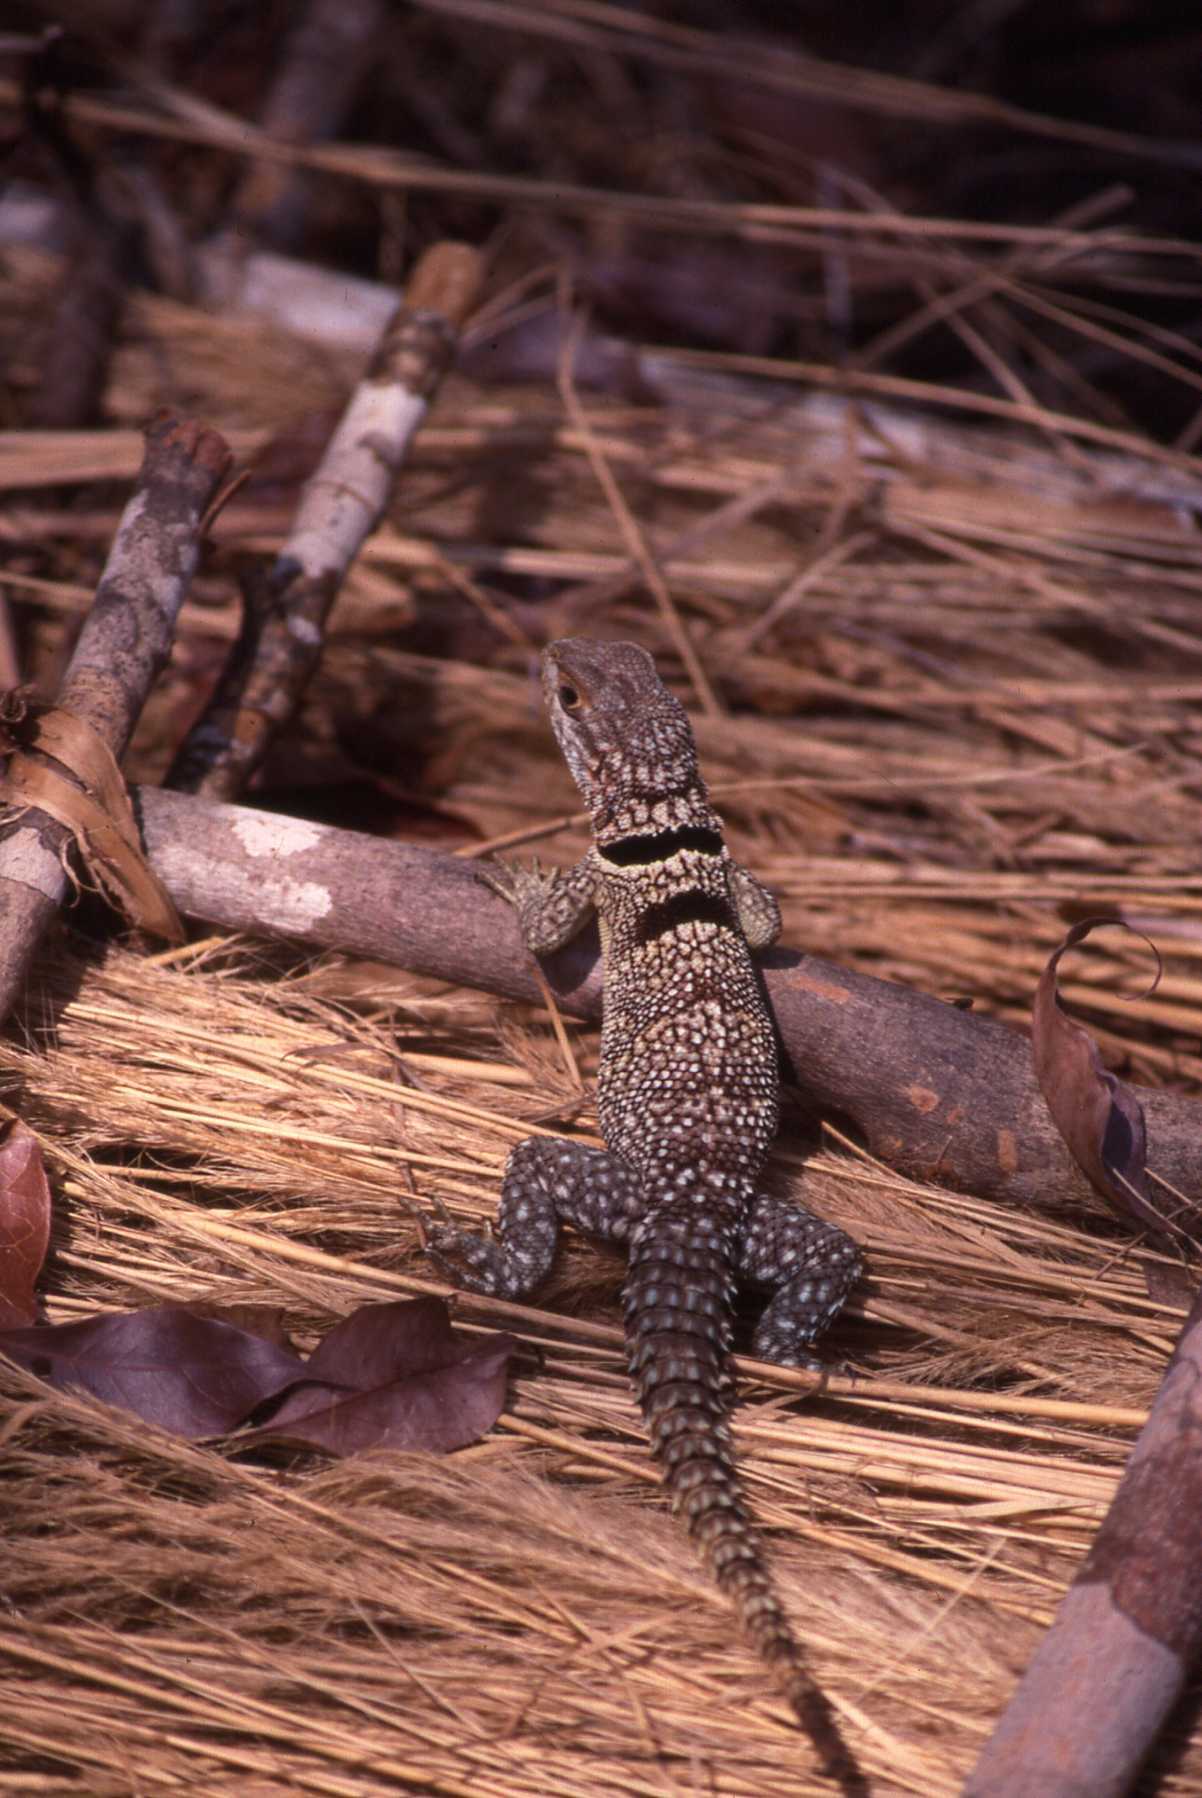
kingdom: Animalia
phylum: Chordata
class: Squamata
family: Opluridae
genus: Oplurus
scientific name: Oplurus cuvieri
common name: Cuvier's madagascar swift
